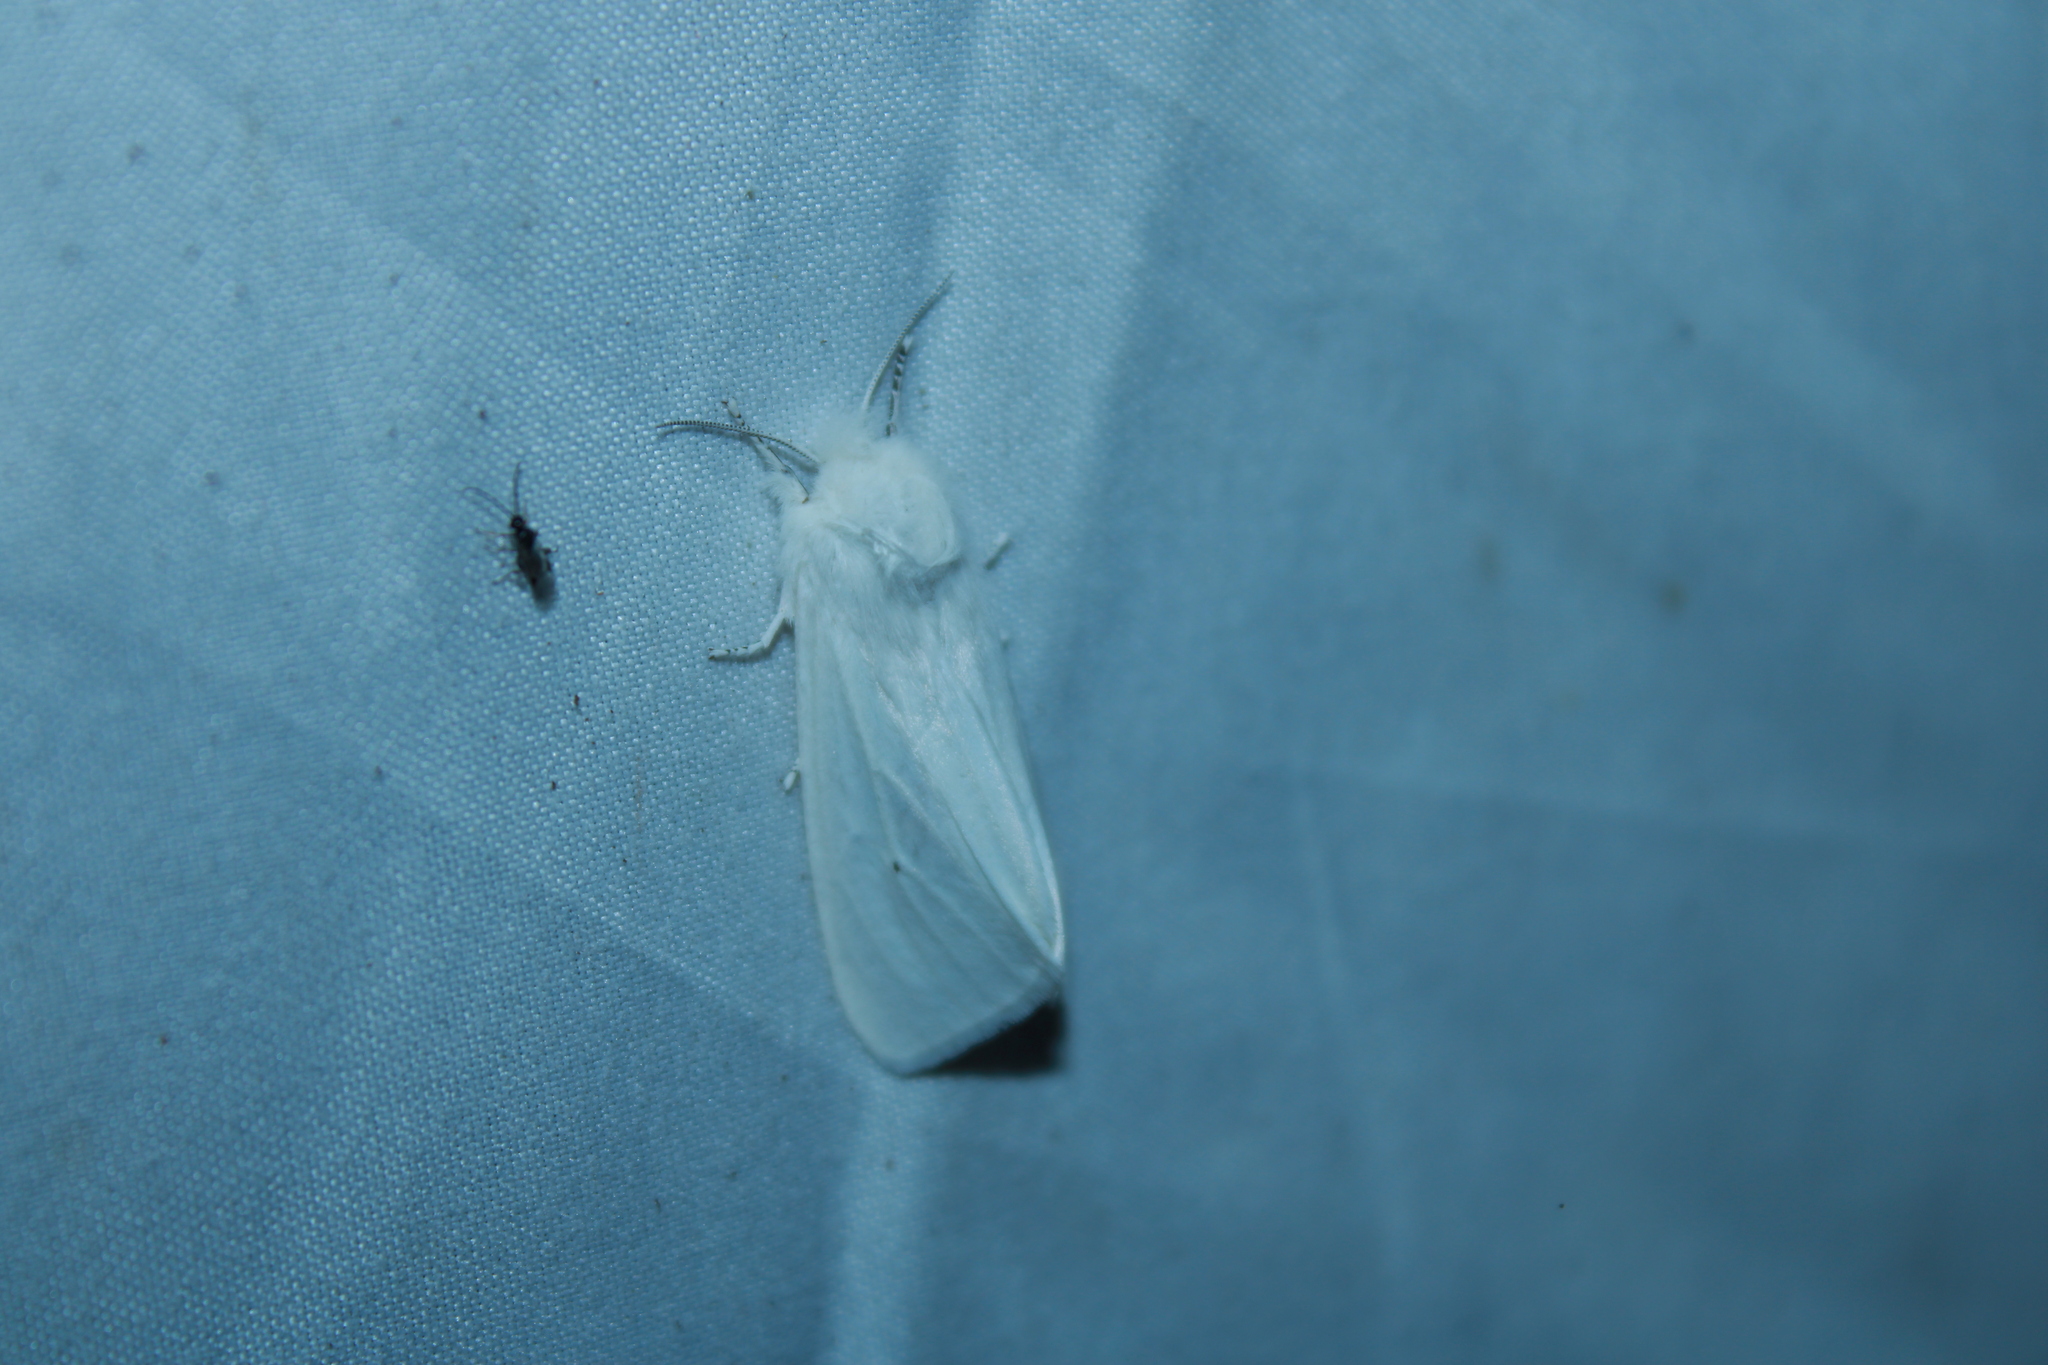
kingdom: Animalia
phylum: Arthropoda
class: Insecta
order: Lepidoptera
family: Erebidae
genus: Spilosoma
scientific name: Spilosoma virginica
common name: Virginia tiger moth
